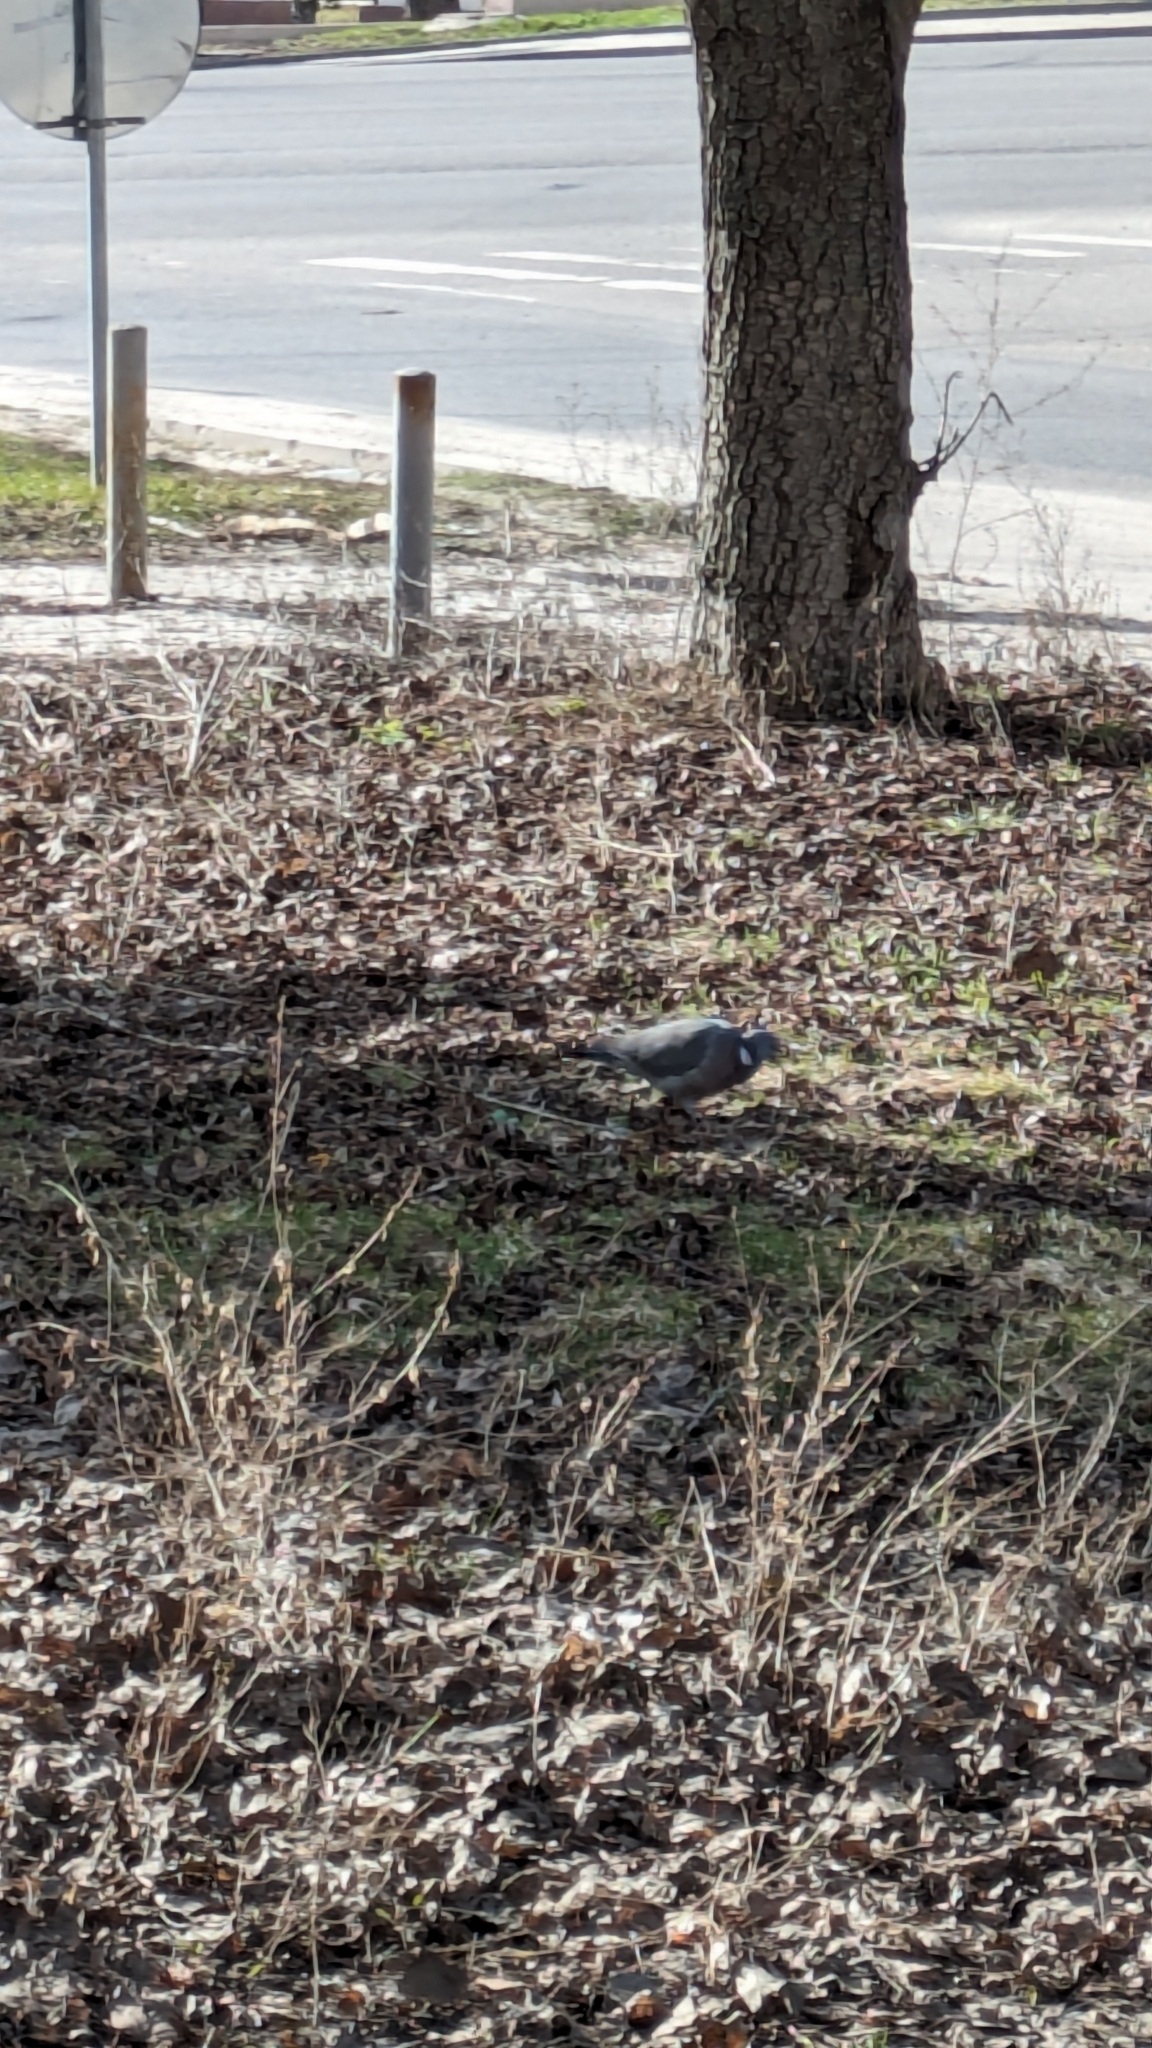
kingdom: Animalia
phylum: Chordata
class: Aves
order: Columbiformes
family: Columbidae
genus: Columba
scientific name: Columba palumbus
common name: Common wood pigeon
